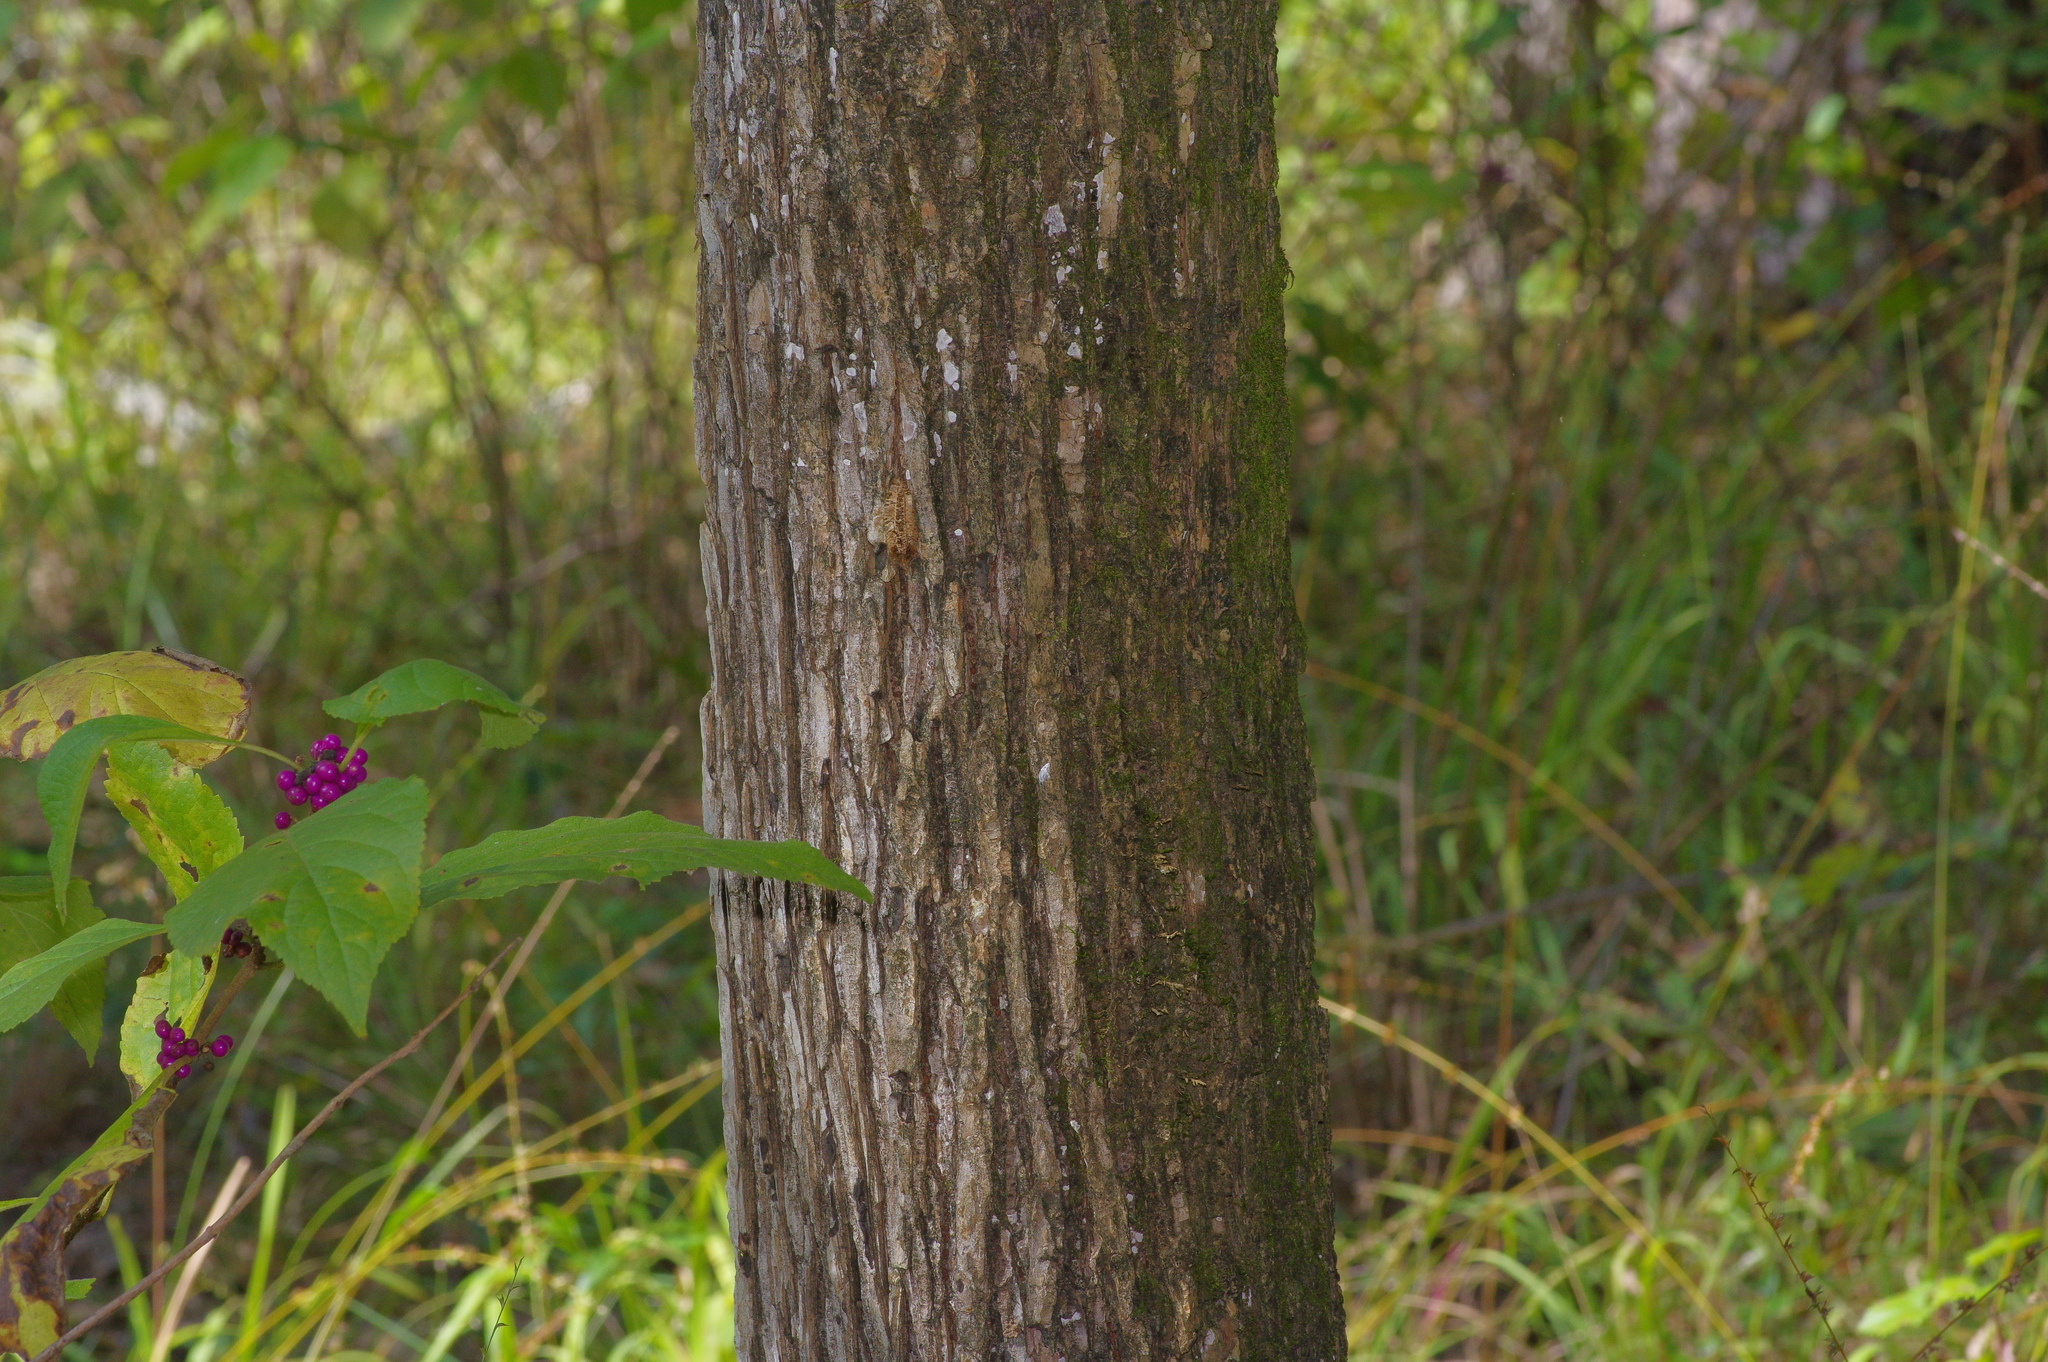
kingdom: Plantae
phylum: Tracheophyta
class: Magnoliopsida
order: Rosales
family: Ulmaceae
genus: Ulmus
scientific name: Ulmus alata
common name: Winged elm
